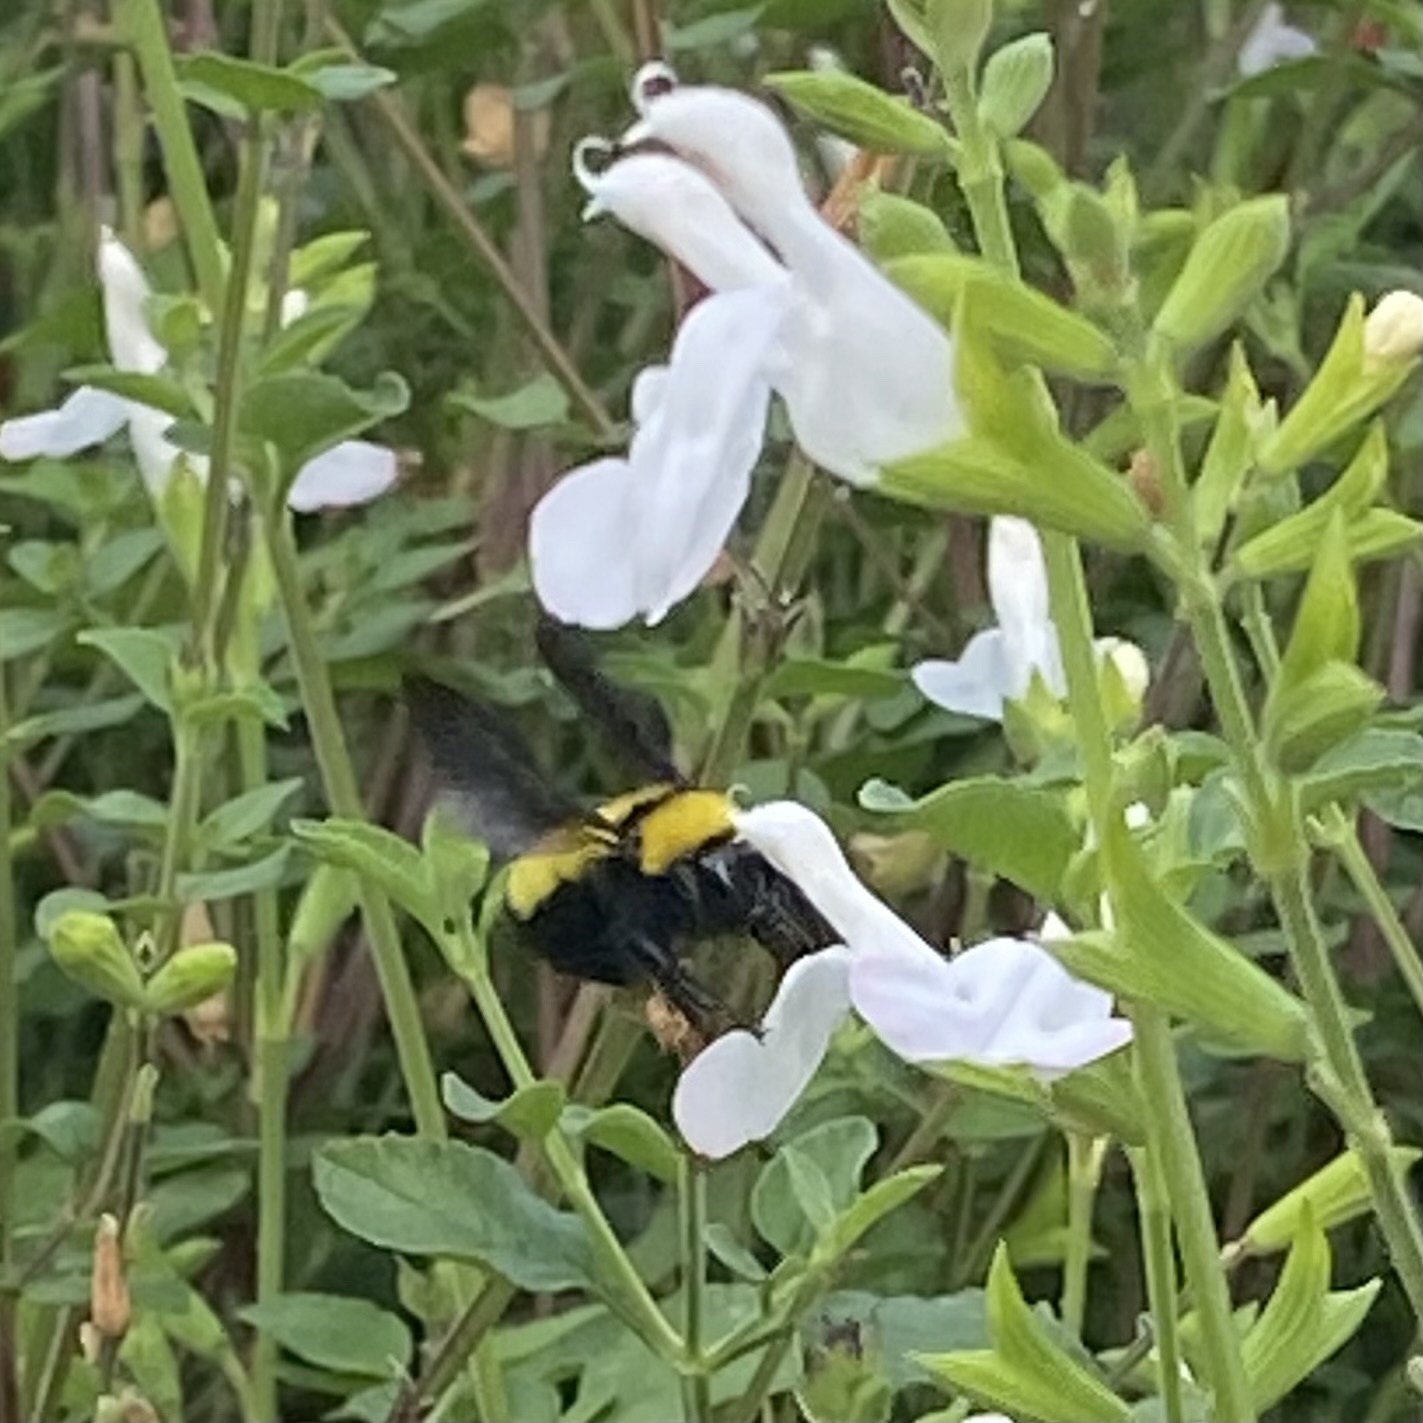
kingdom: Animalia
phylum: Arthropoda
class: Insecta
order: Hymenoptera
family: Apidae
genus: Bombus
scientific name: Bombus sonorus
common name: Sonoran bumble bee
